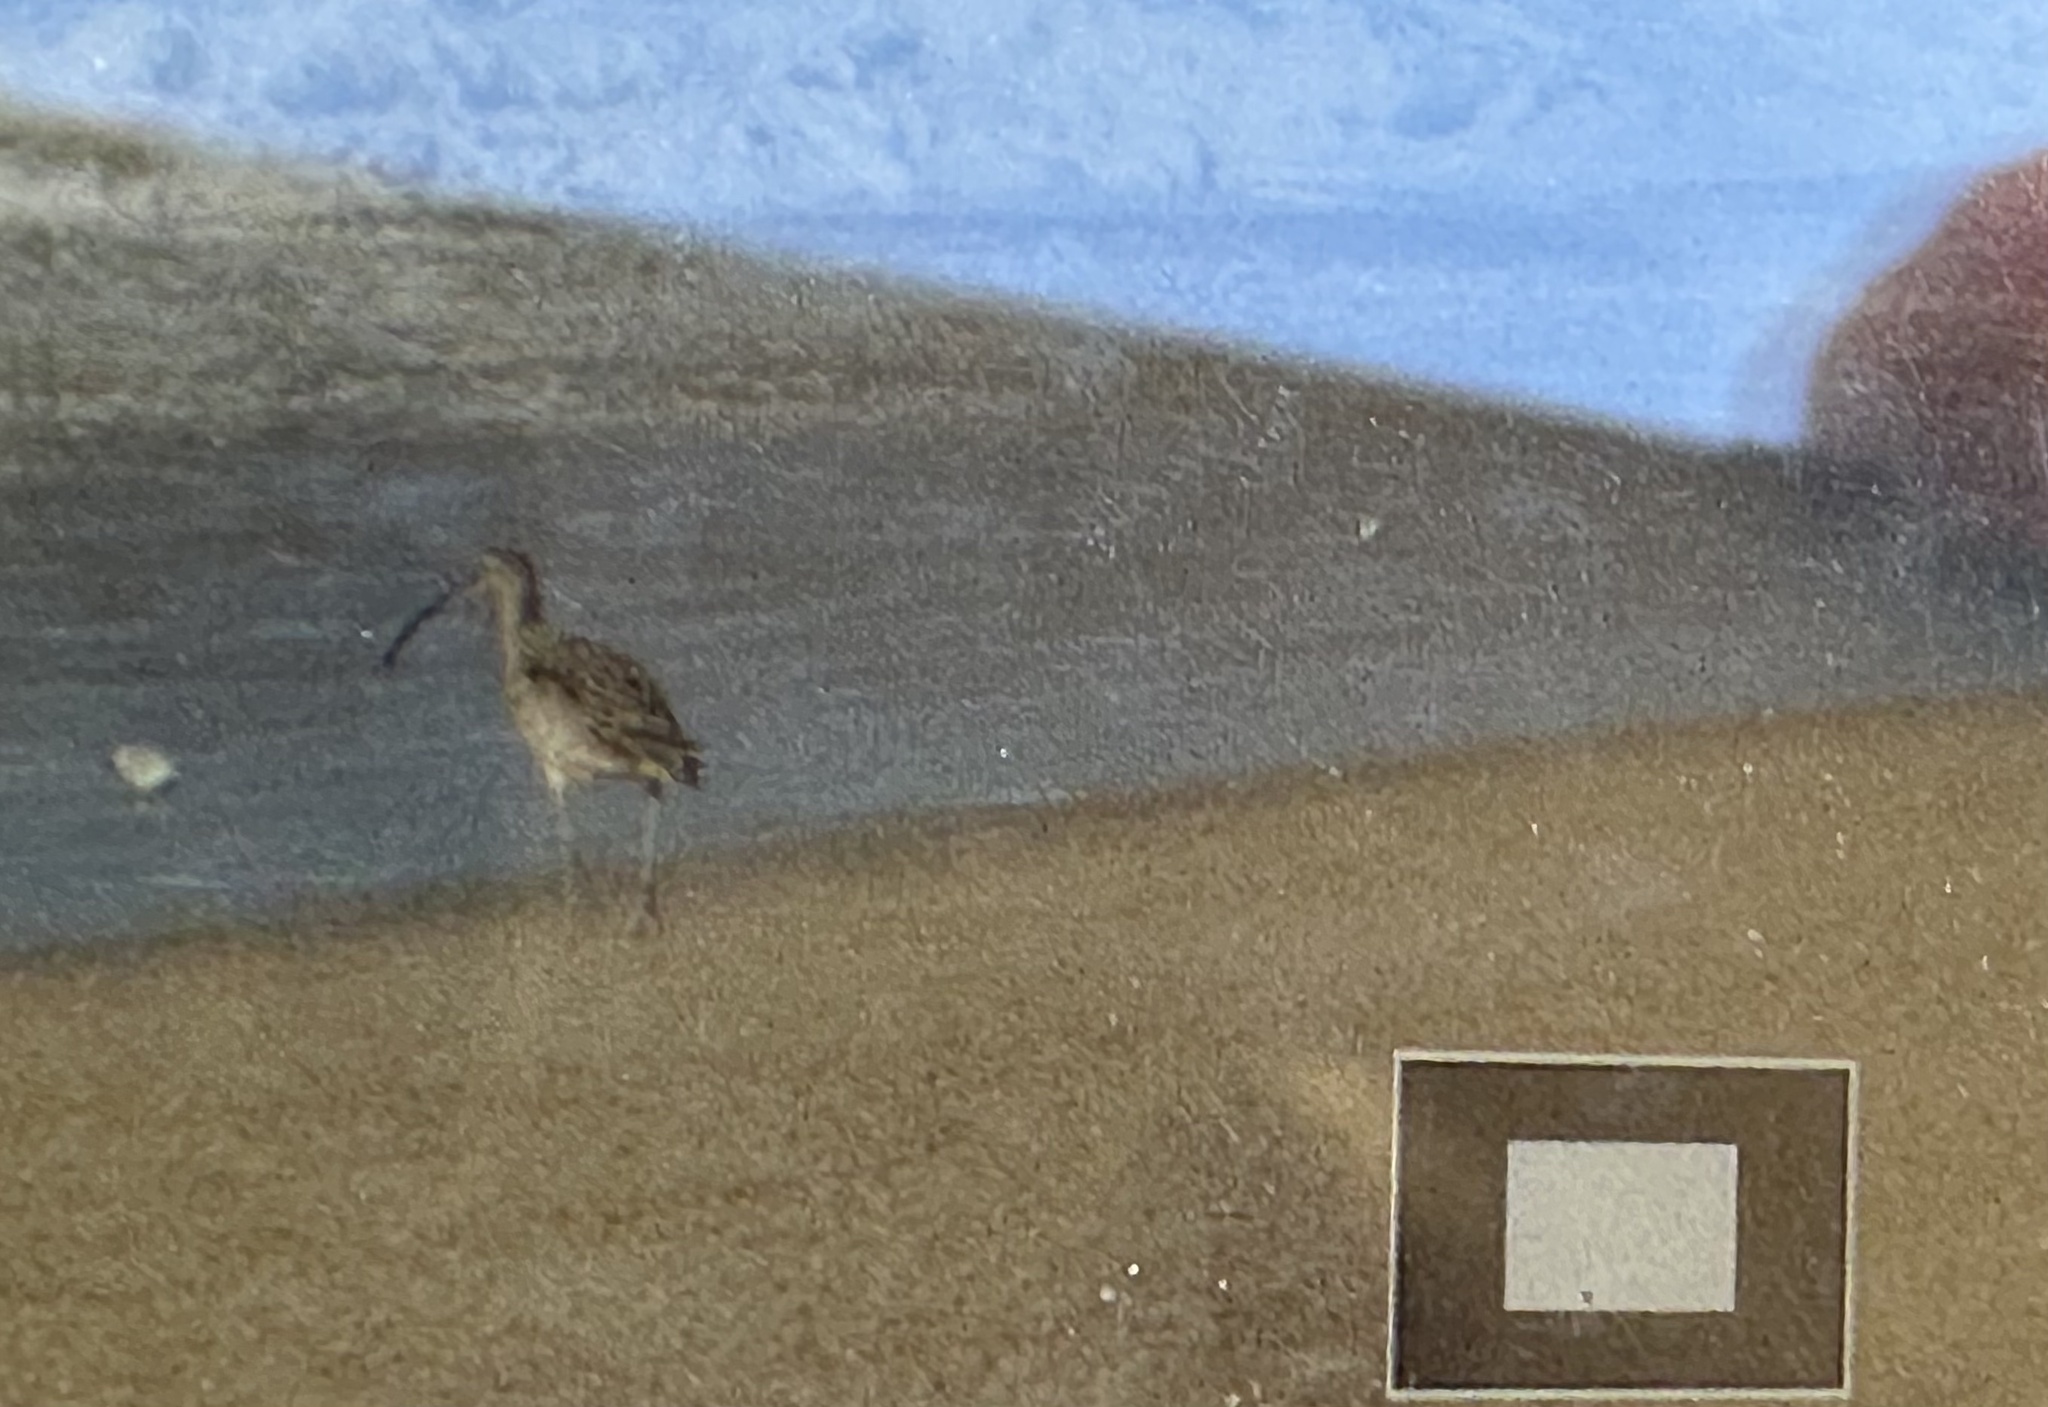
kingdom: Animalia
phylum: Chordata
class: Aves
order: Charadriiformes
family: Scolopacidae
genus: Numenius
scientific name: Numenius americanus
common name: Long-billed curlew
